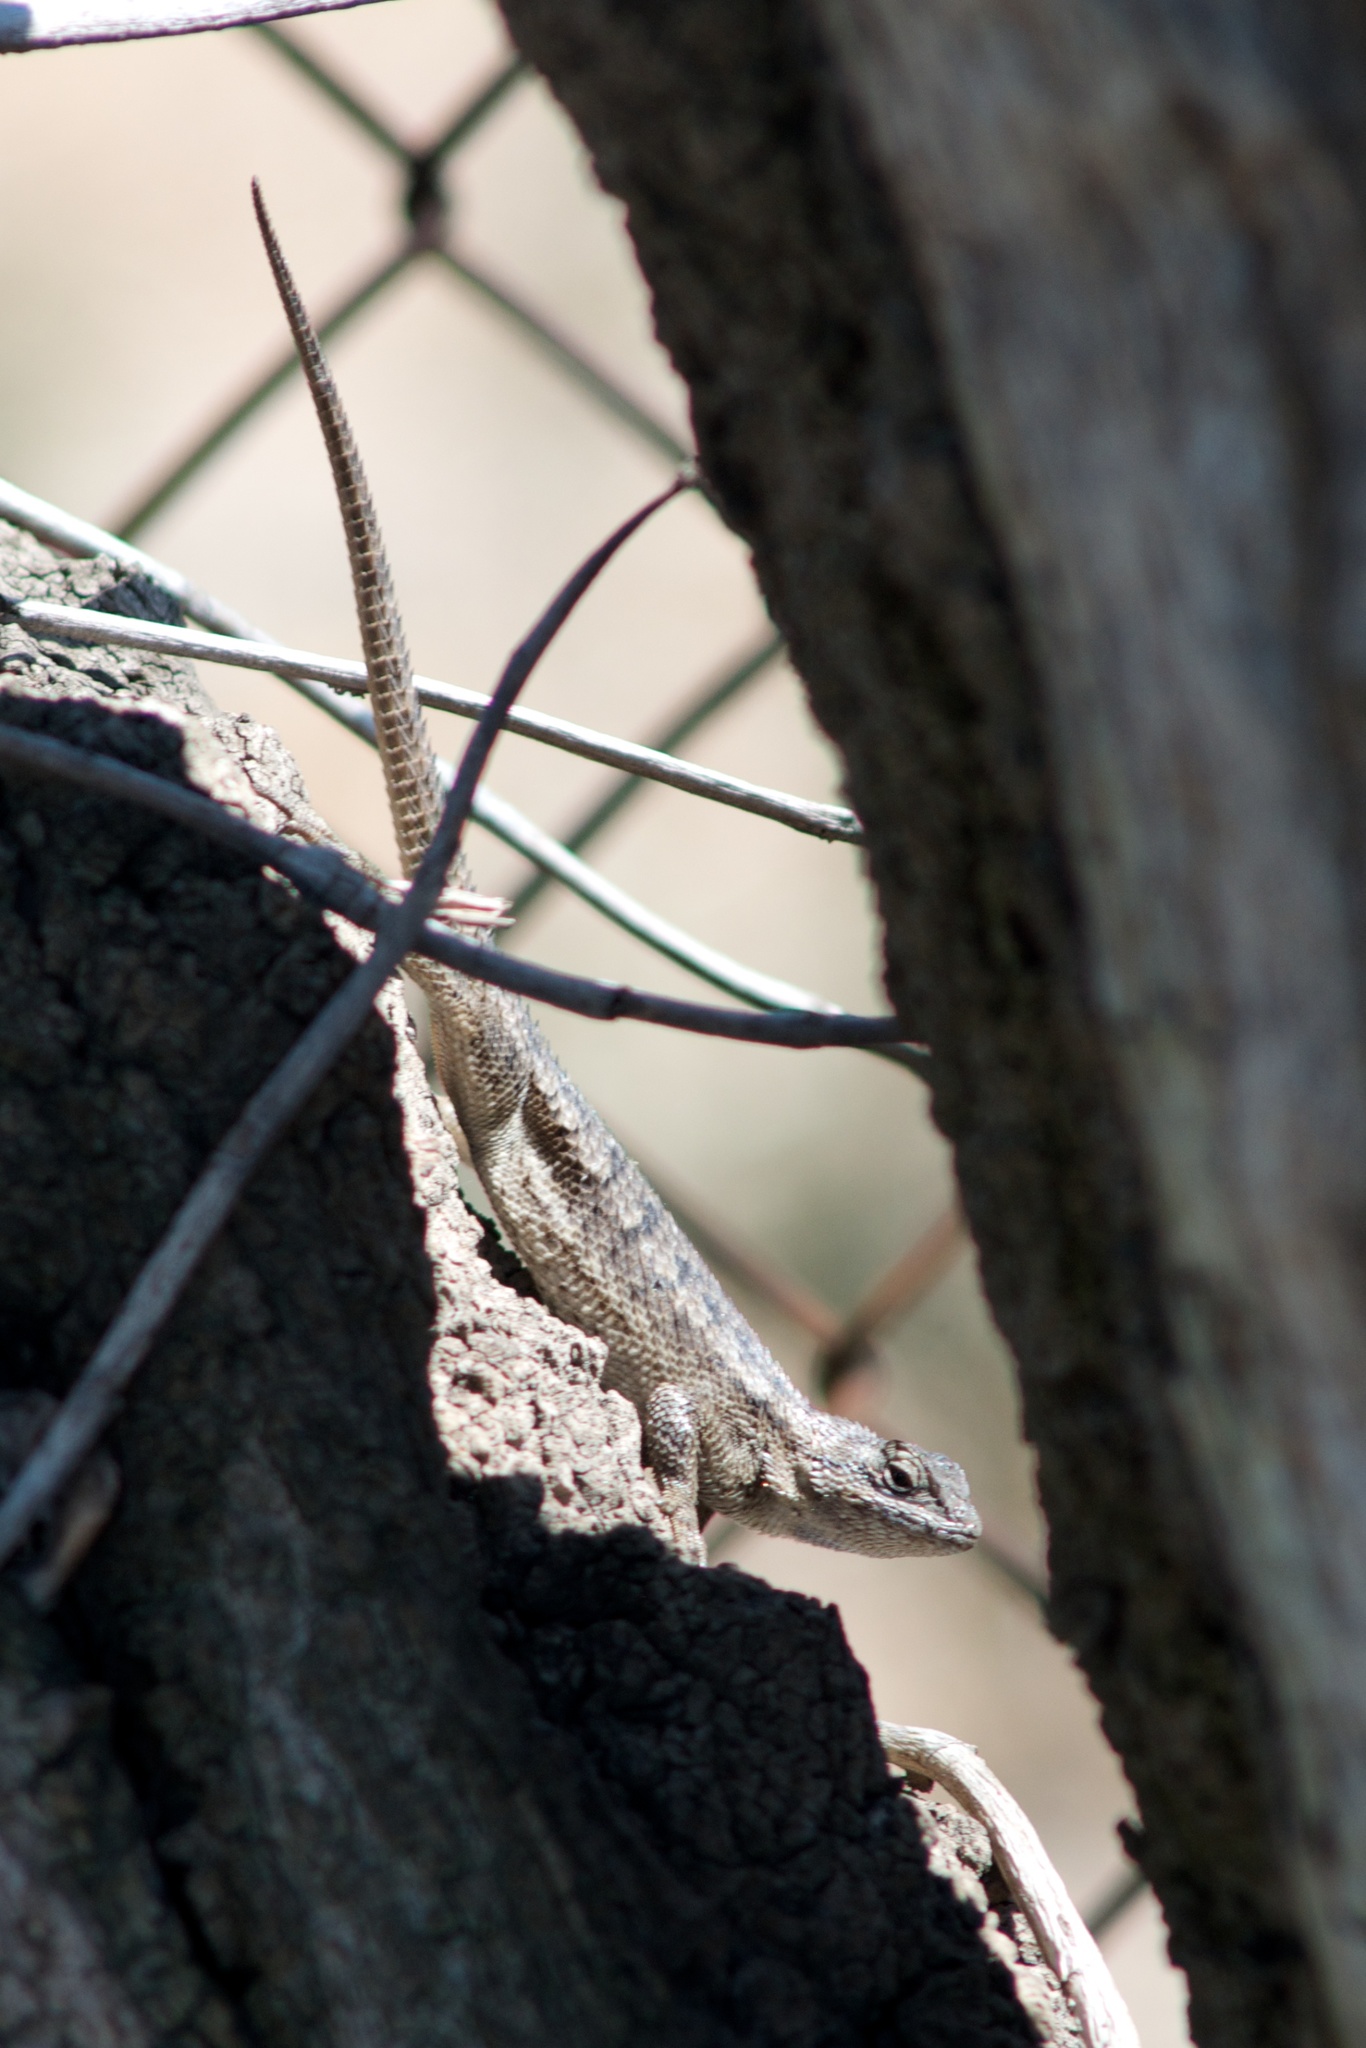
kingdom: Animalia
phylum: Chordata
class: Squamata
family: Phrynosomatidae
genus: Sceloporus
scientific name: Sceloporus occidentalis
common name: Western fence lizard
